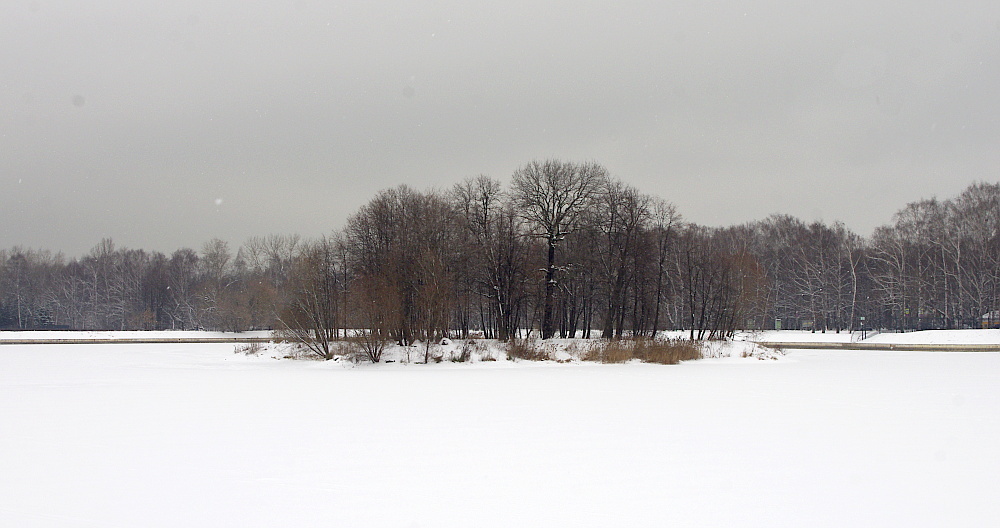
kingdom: Plantae
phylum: Tracheophyta
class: Liliopsida
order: Poales
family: Poaceae
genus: Phragmites
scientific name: Phragmites australis
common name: Common reed
